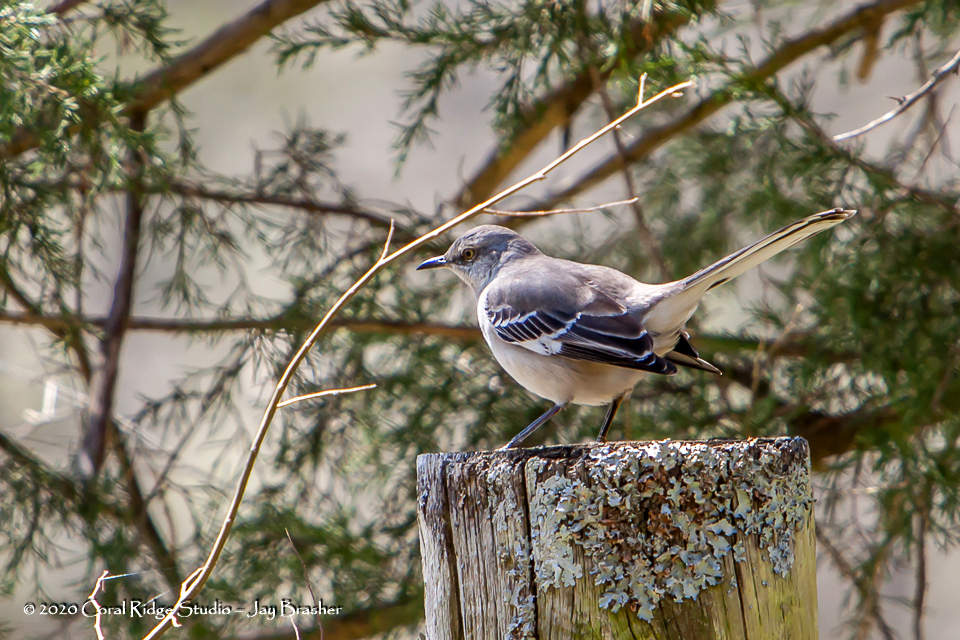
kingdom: Animalia
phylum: Chordata
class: Aves
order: Passeriformes
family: Mimidae
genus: Mimus
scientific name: Mimus polyglottos
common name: Northern mockingbird
